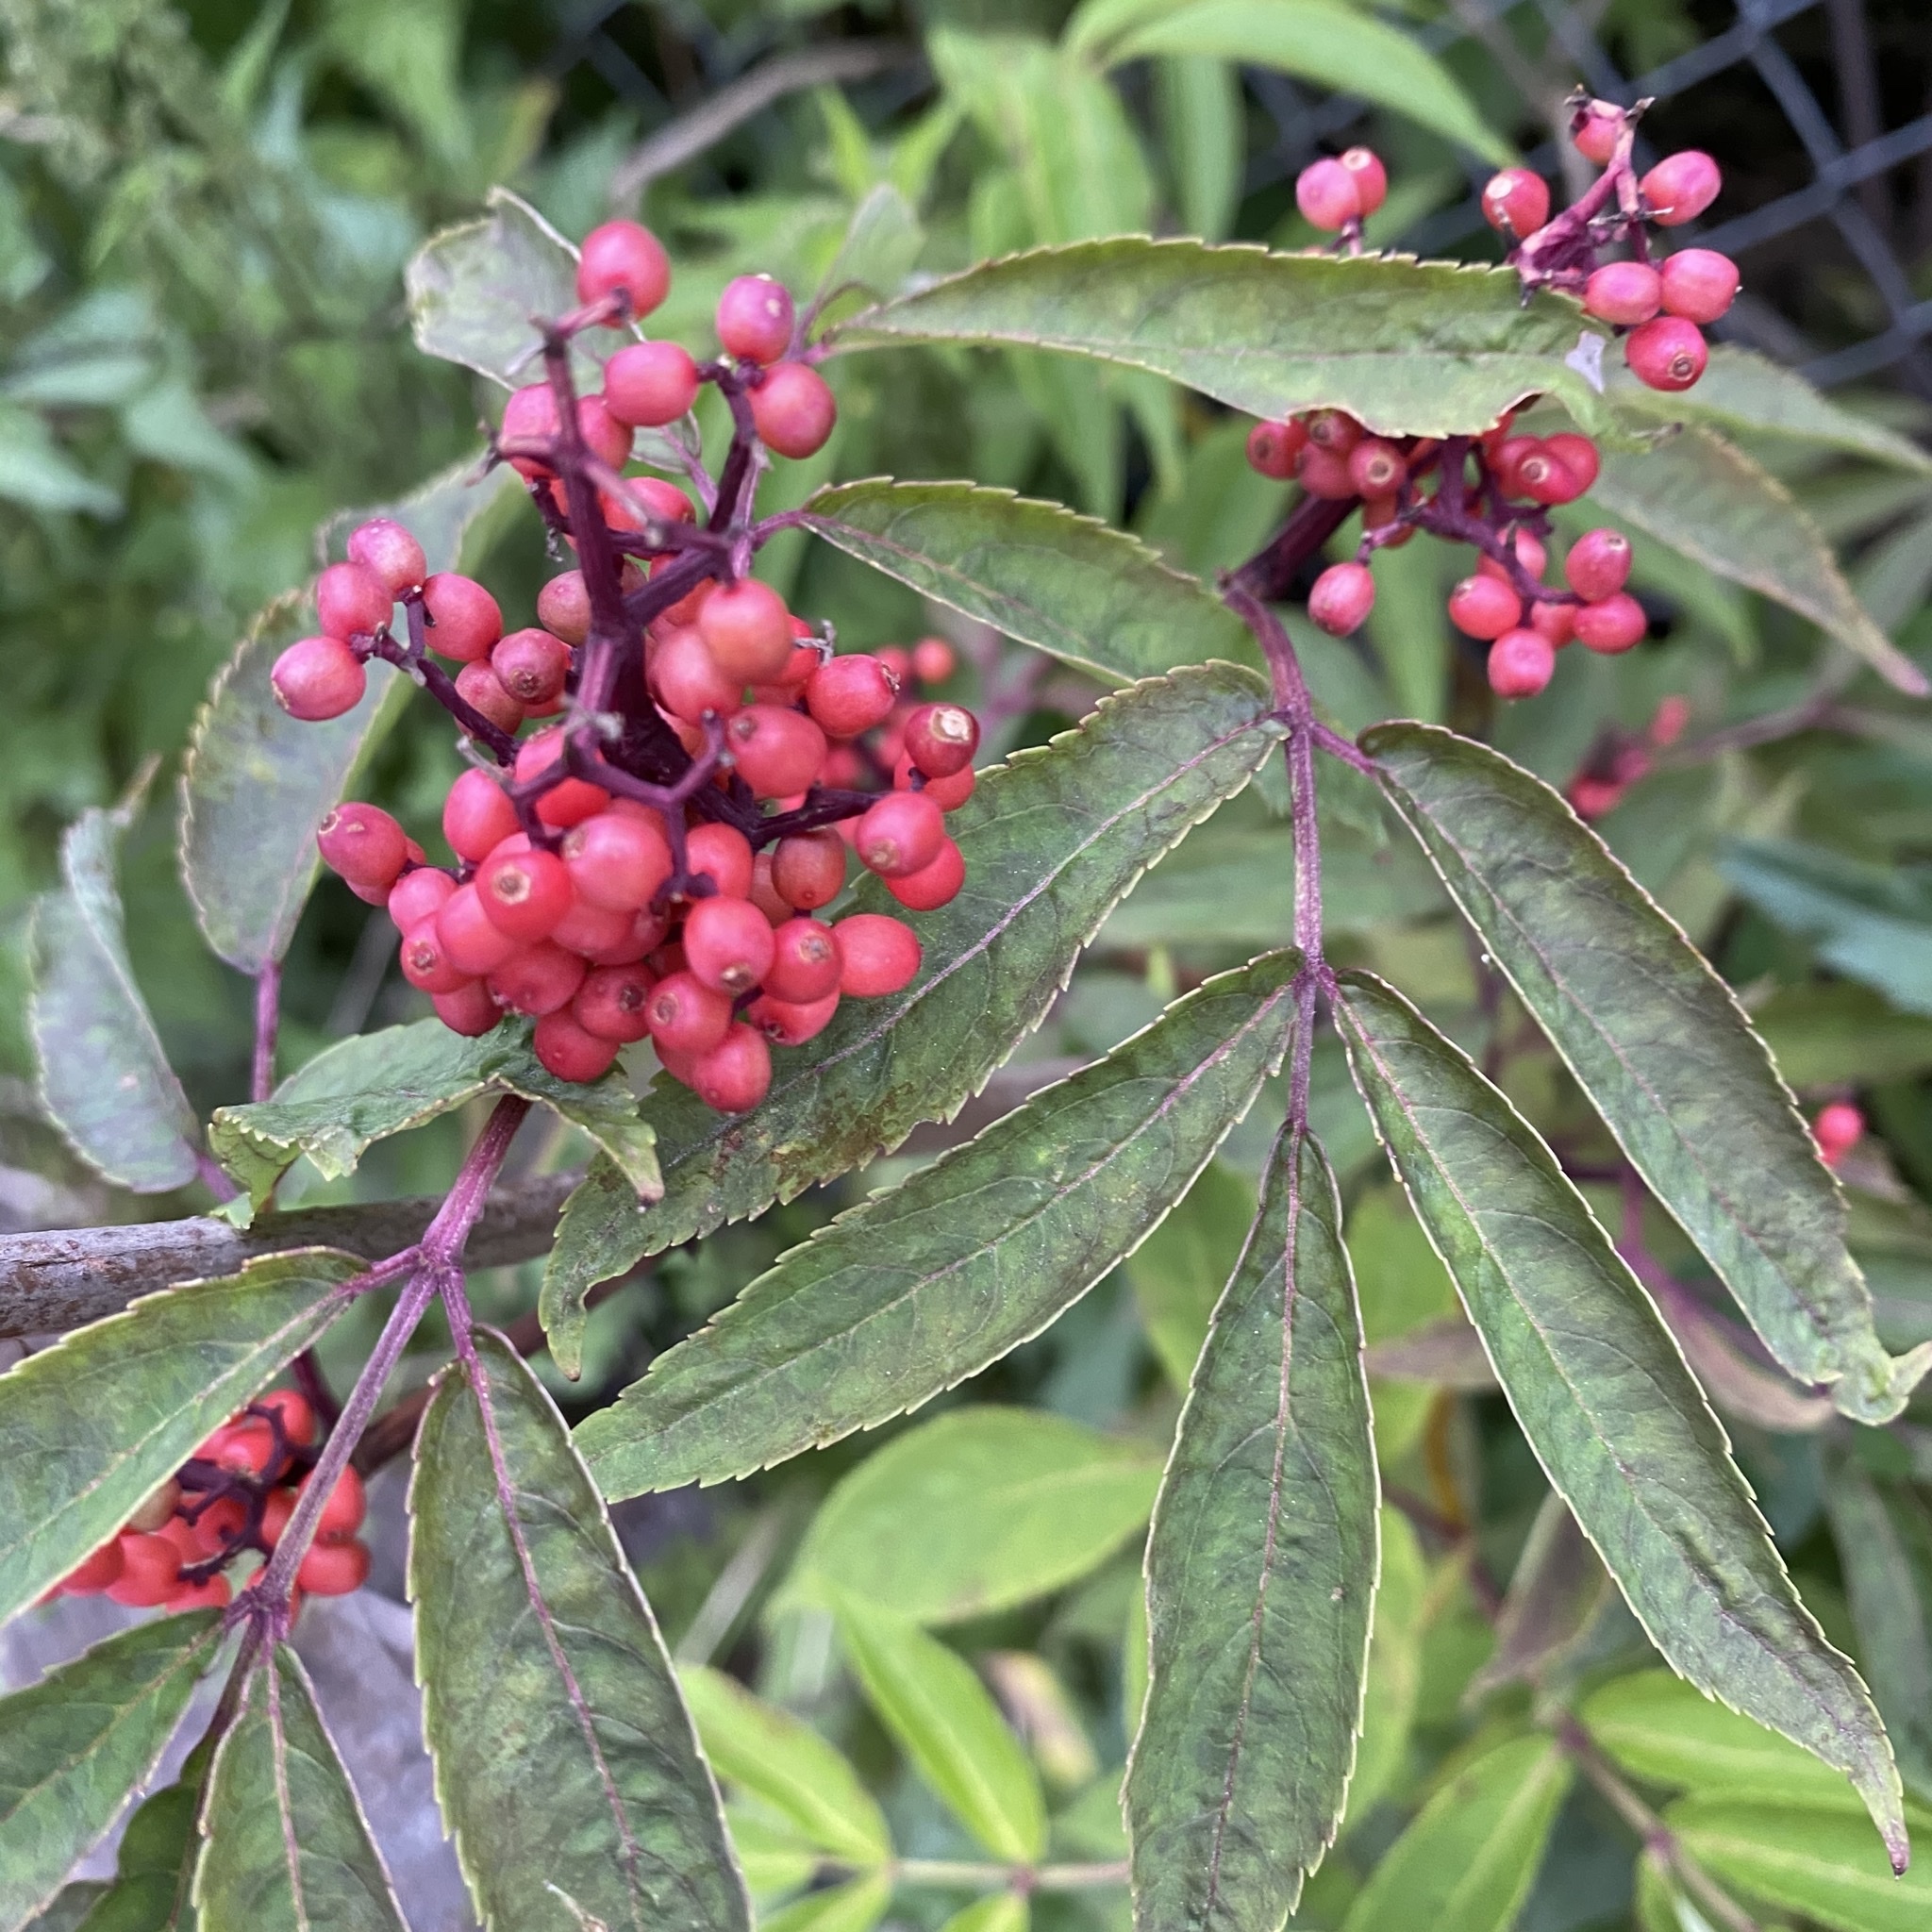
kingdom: Plantae
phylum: Tracheophyta
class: Magnoliopsida
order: Dipsacales
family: Viburnaceae
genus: Sambucus
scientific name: Sambucus racemosa
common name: Red-berried elder
